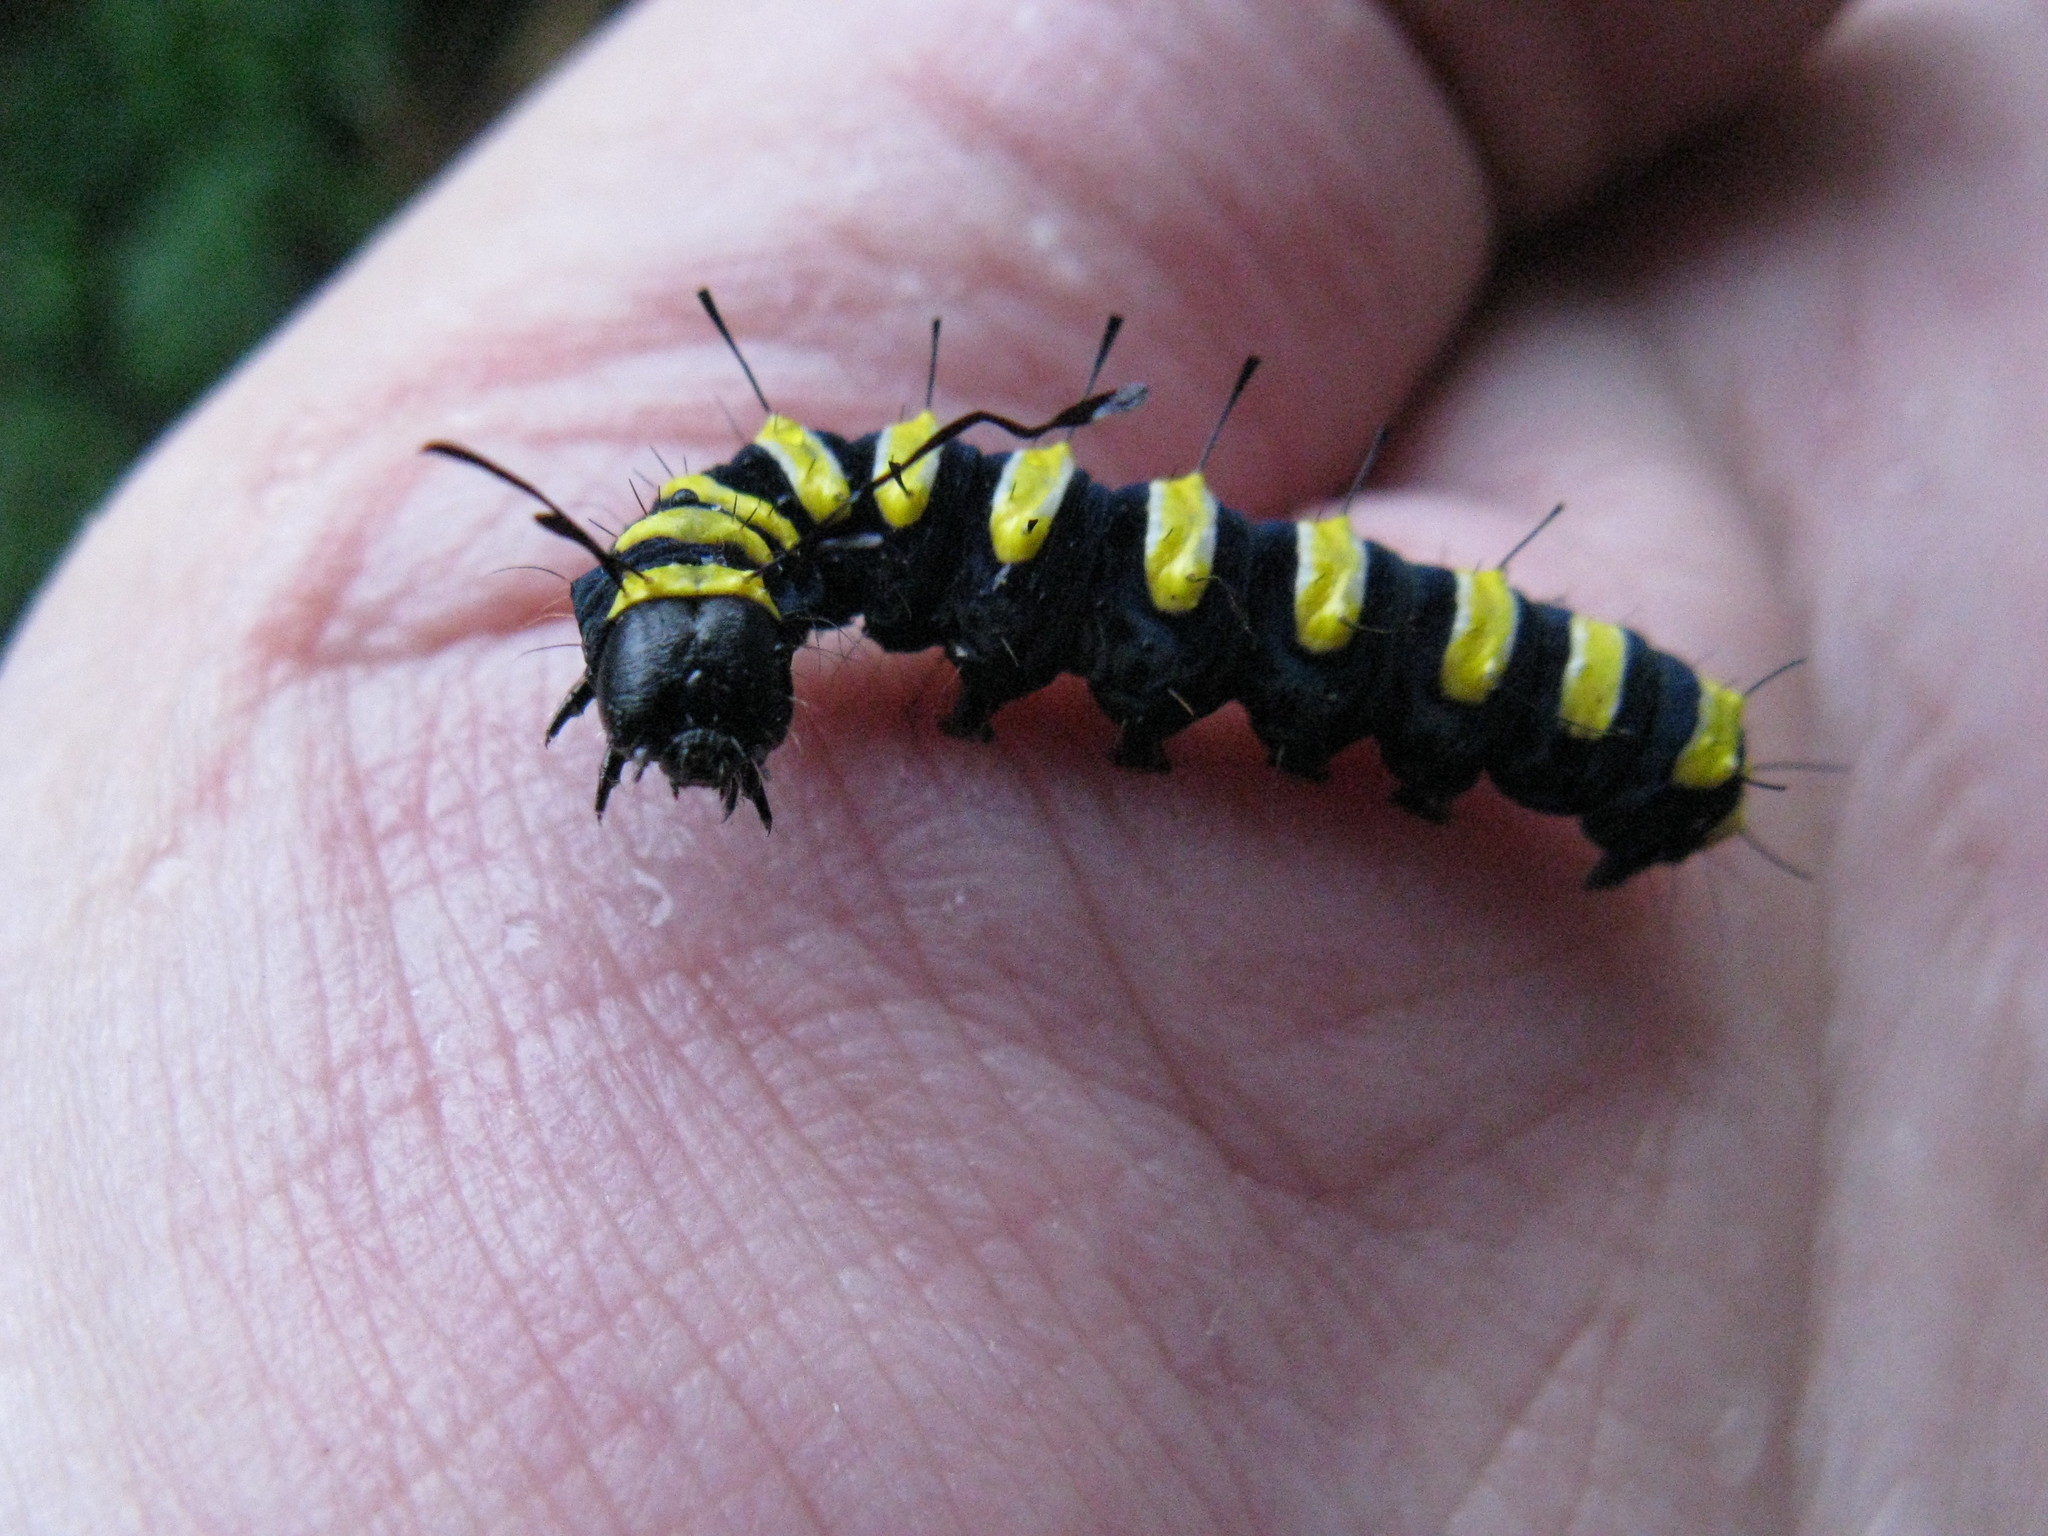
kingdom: Animalia
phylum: Arthropoda
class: Insecta
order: Lepidoptera
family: Noctuidae
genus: Acronicta
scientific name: Acronicta alni
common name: Alder moth
